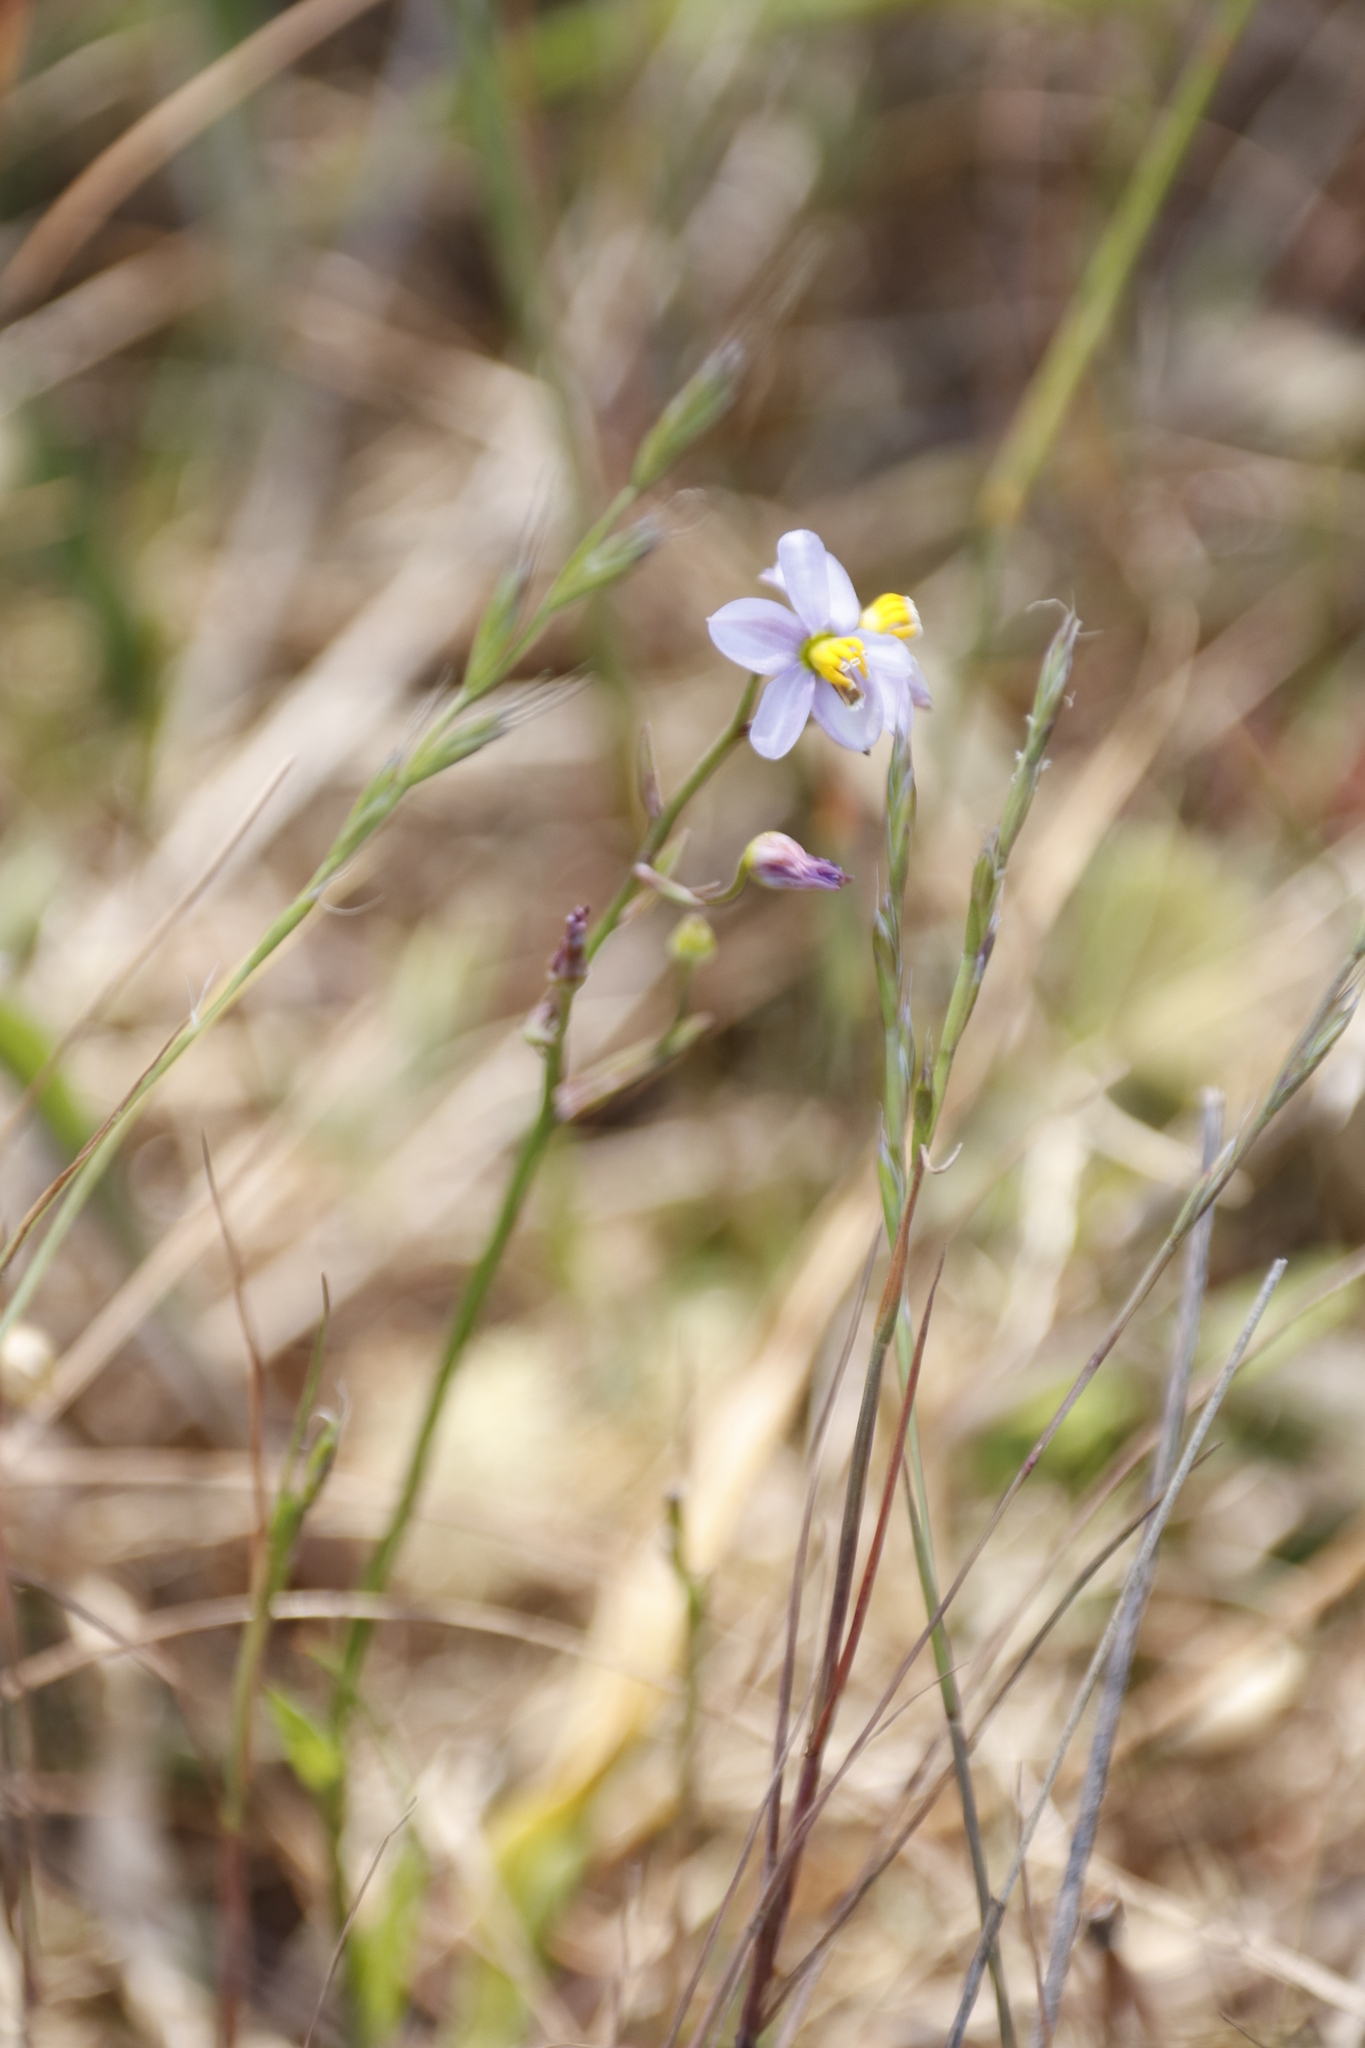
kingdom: Plantae
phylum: Tracheophyta
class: Liliopsida
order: Asparagales
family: Tecophilaeaceae
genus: Cyanella
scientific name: Cyanella hyacinthoides
